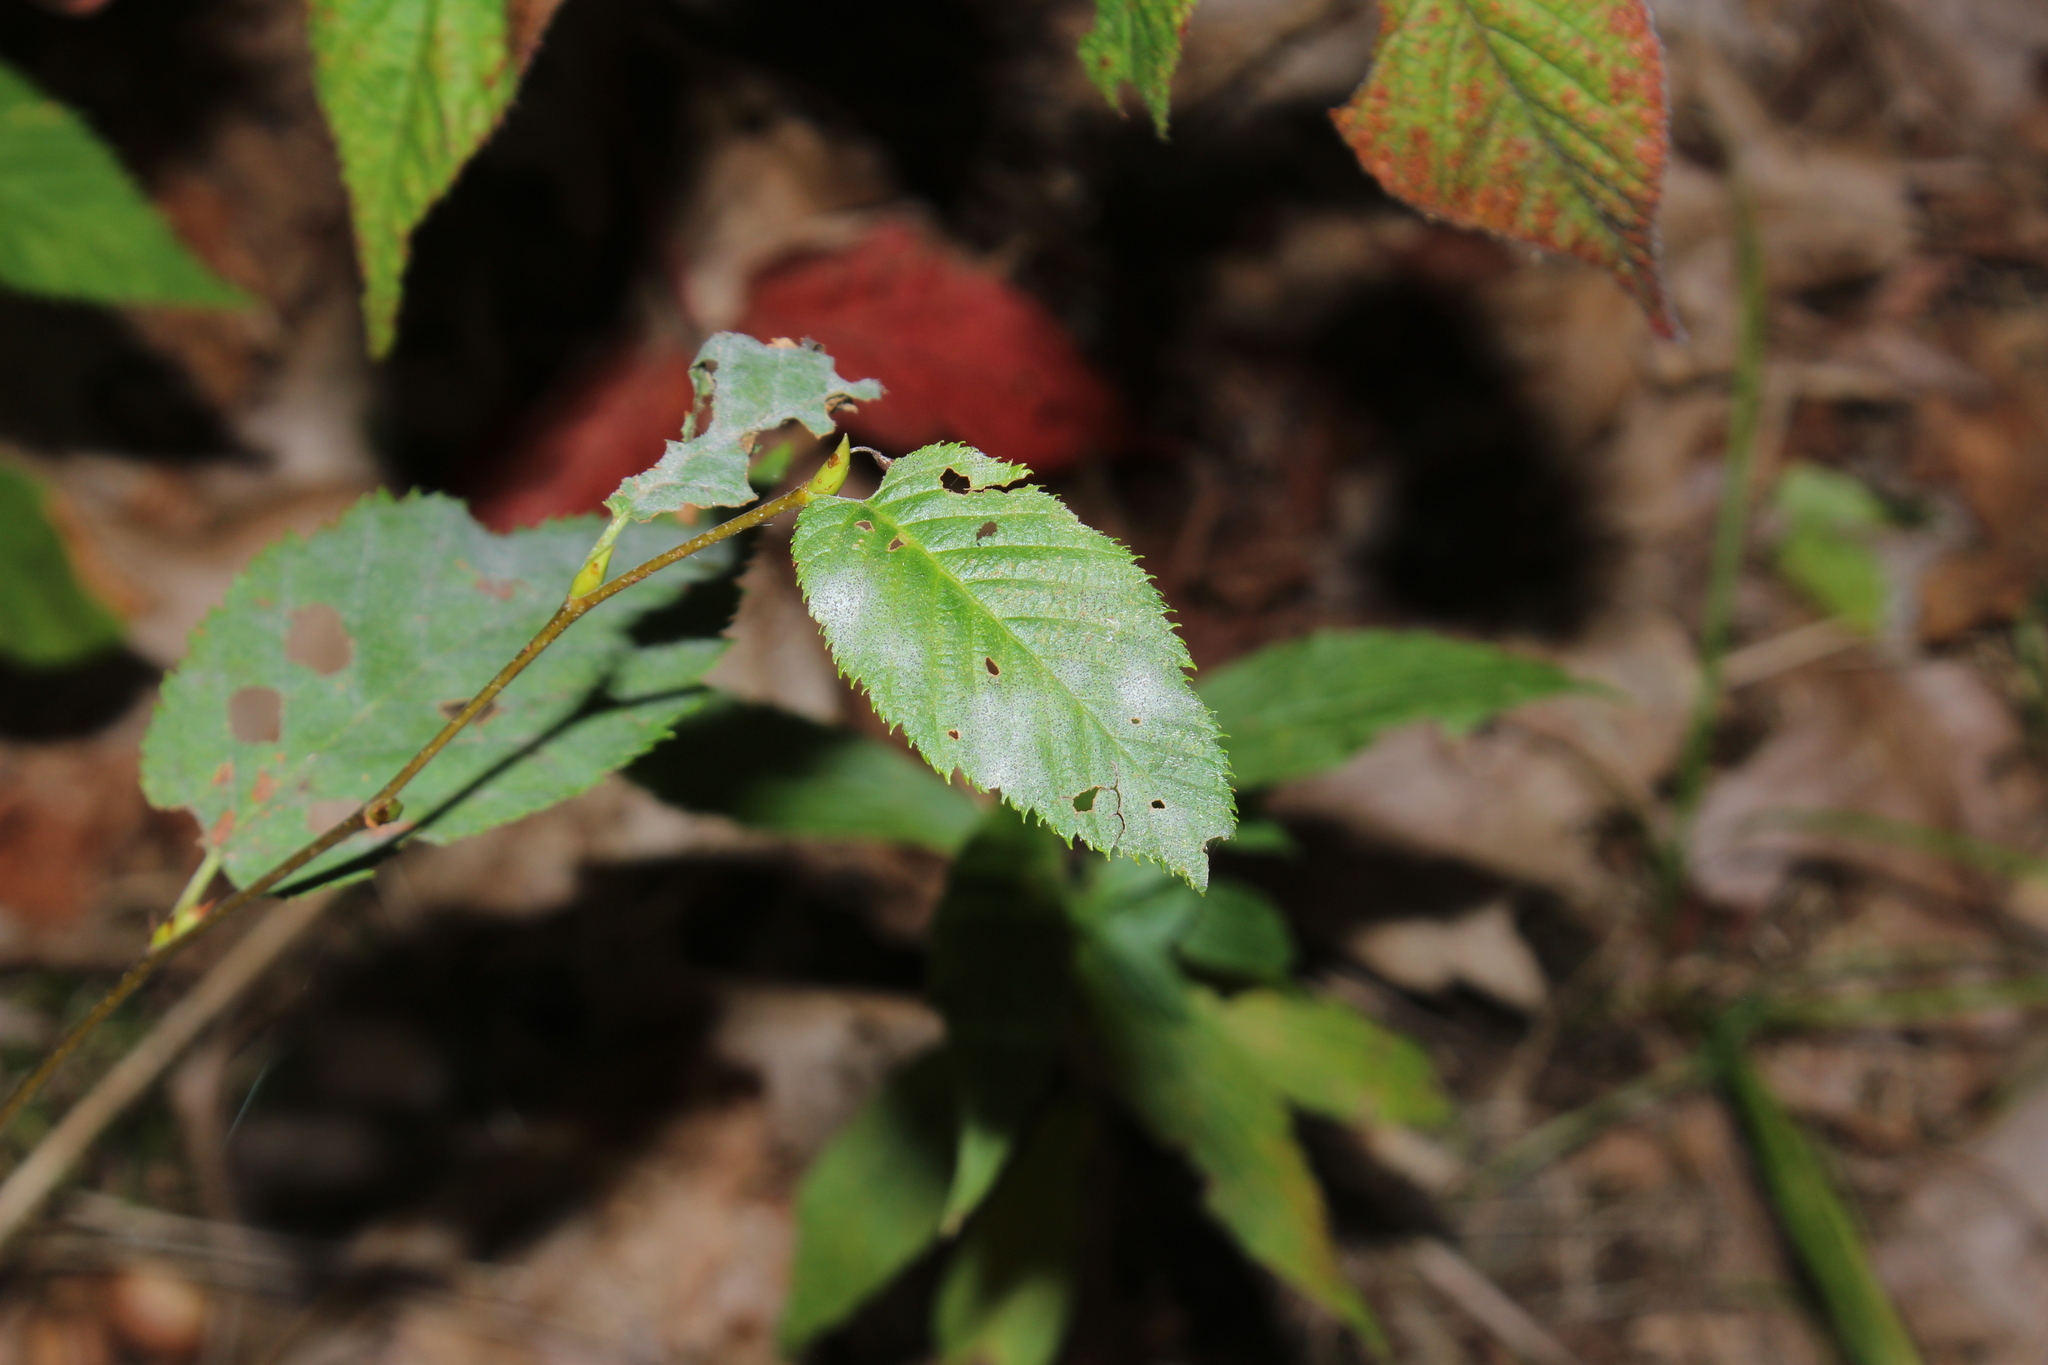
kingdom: Fungi
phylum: Ascomycota
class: Leotiomycetes
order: Helotiales
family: Erysiphaceae
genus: Erysiphe
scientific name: Erysiphe ostryae
